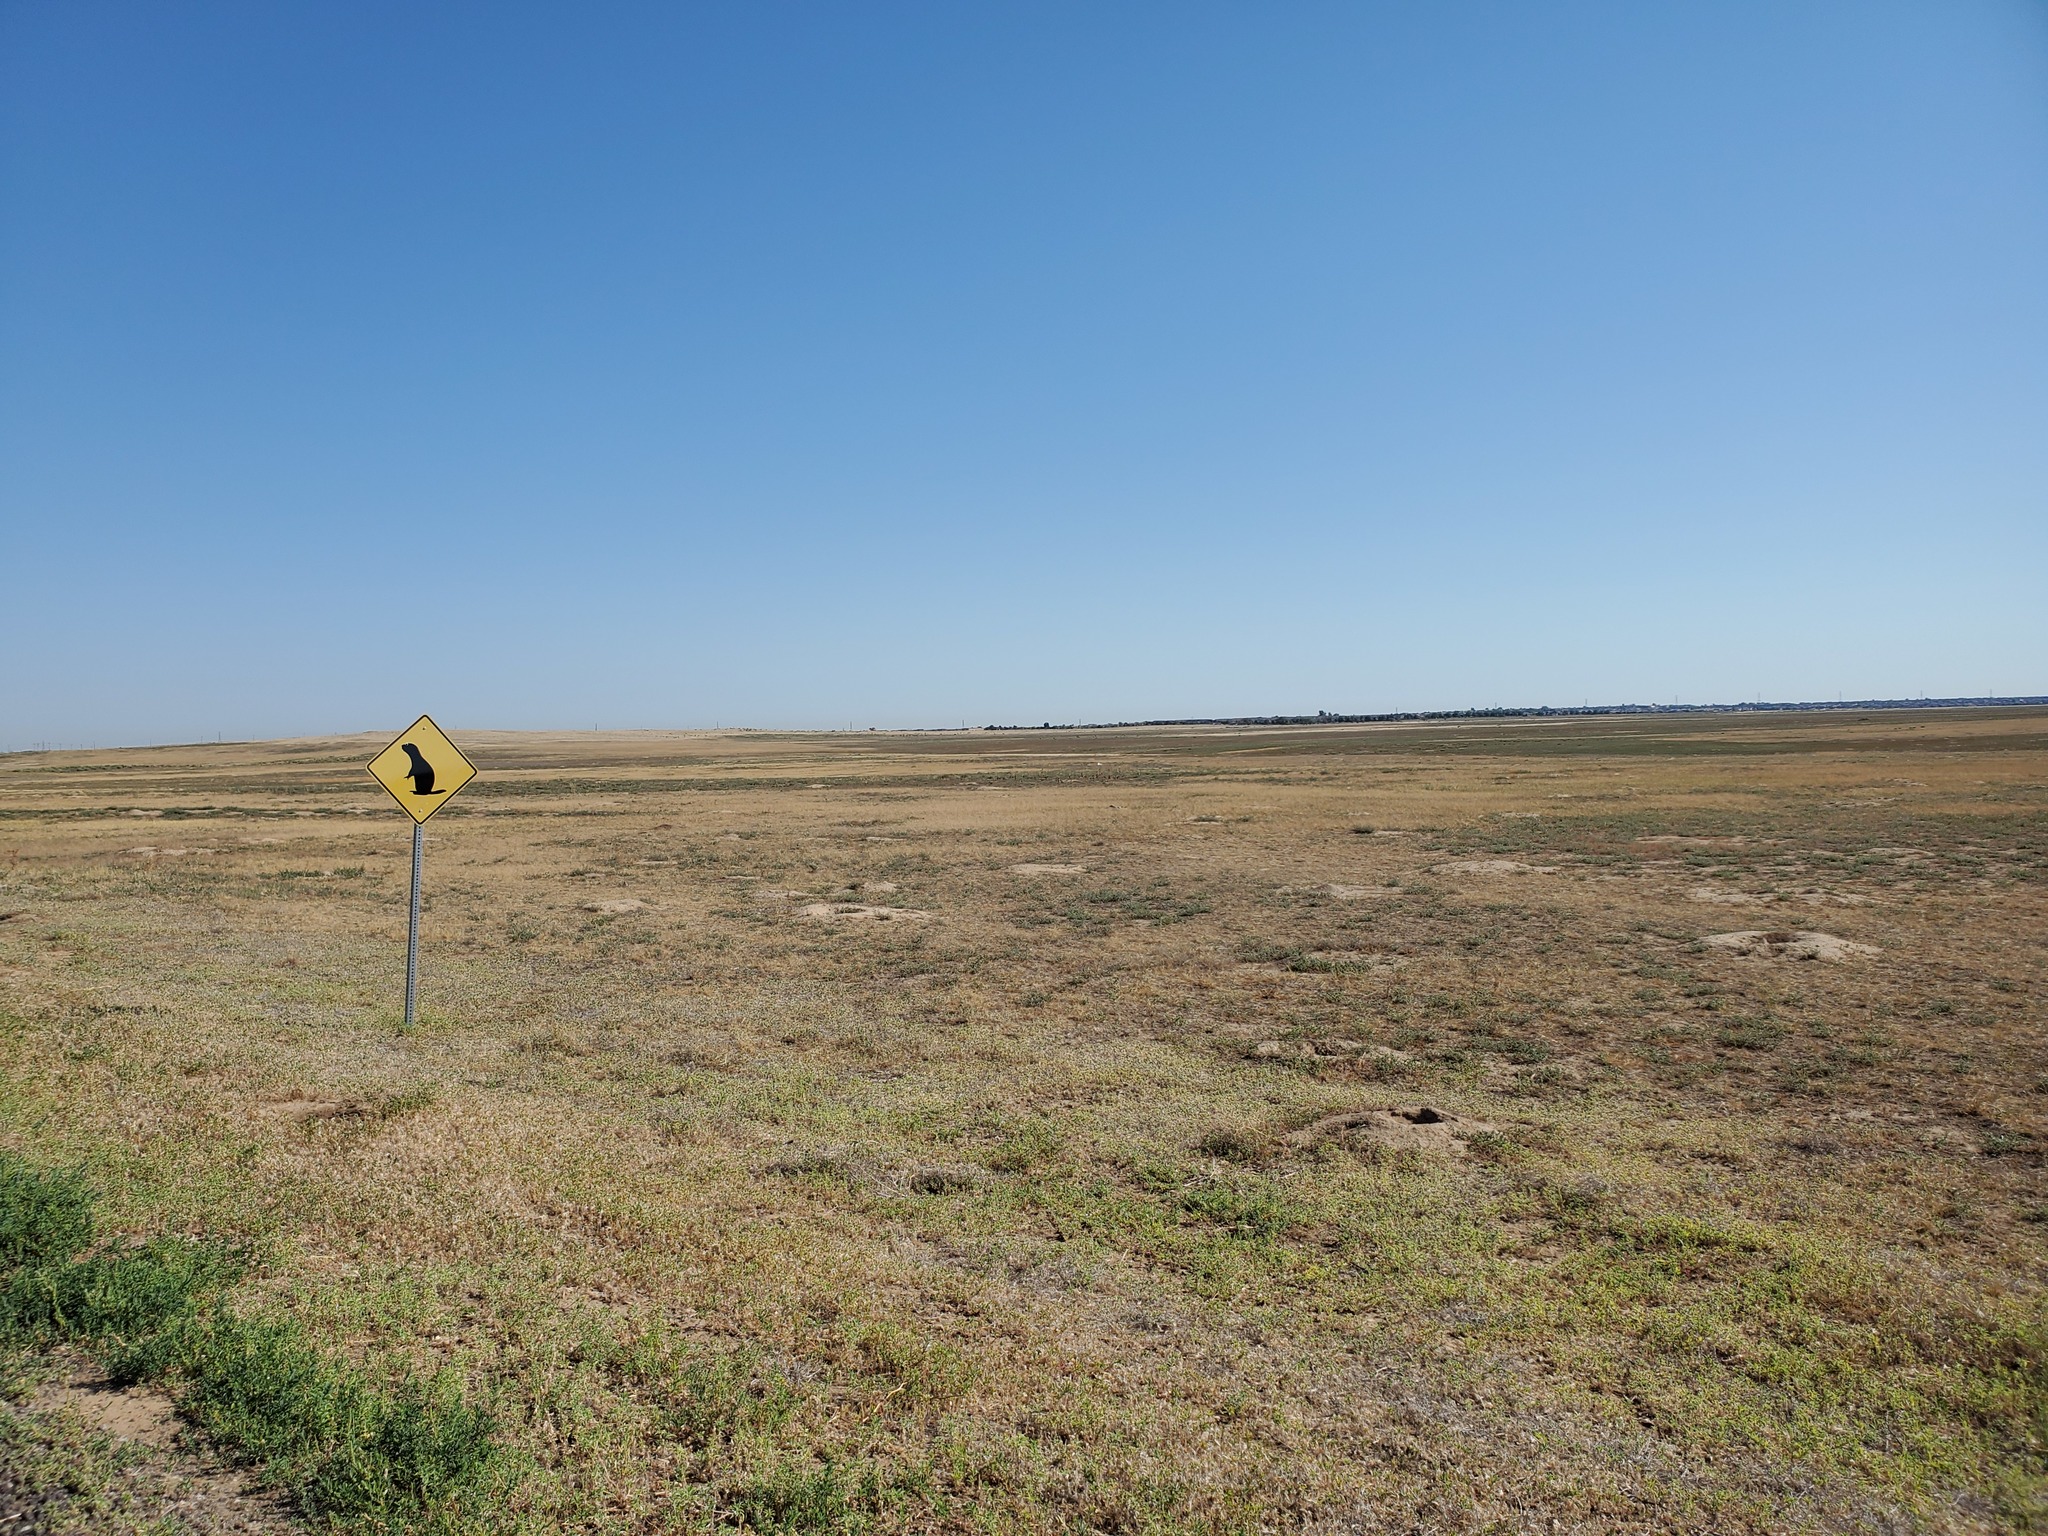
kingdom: Animalia
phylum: Chordata
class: Mammalia
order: Rodentia
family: Sciuridae
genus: Cynomys
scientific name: Cynomys ludovicianus
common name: Black-tailed prairie dog
